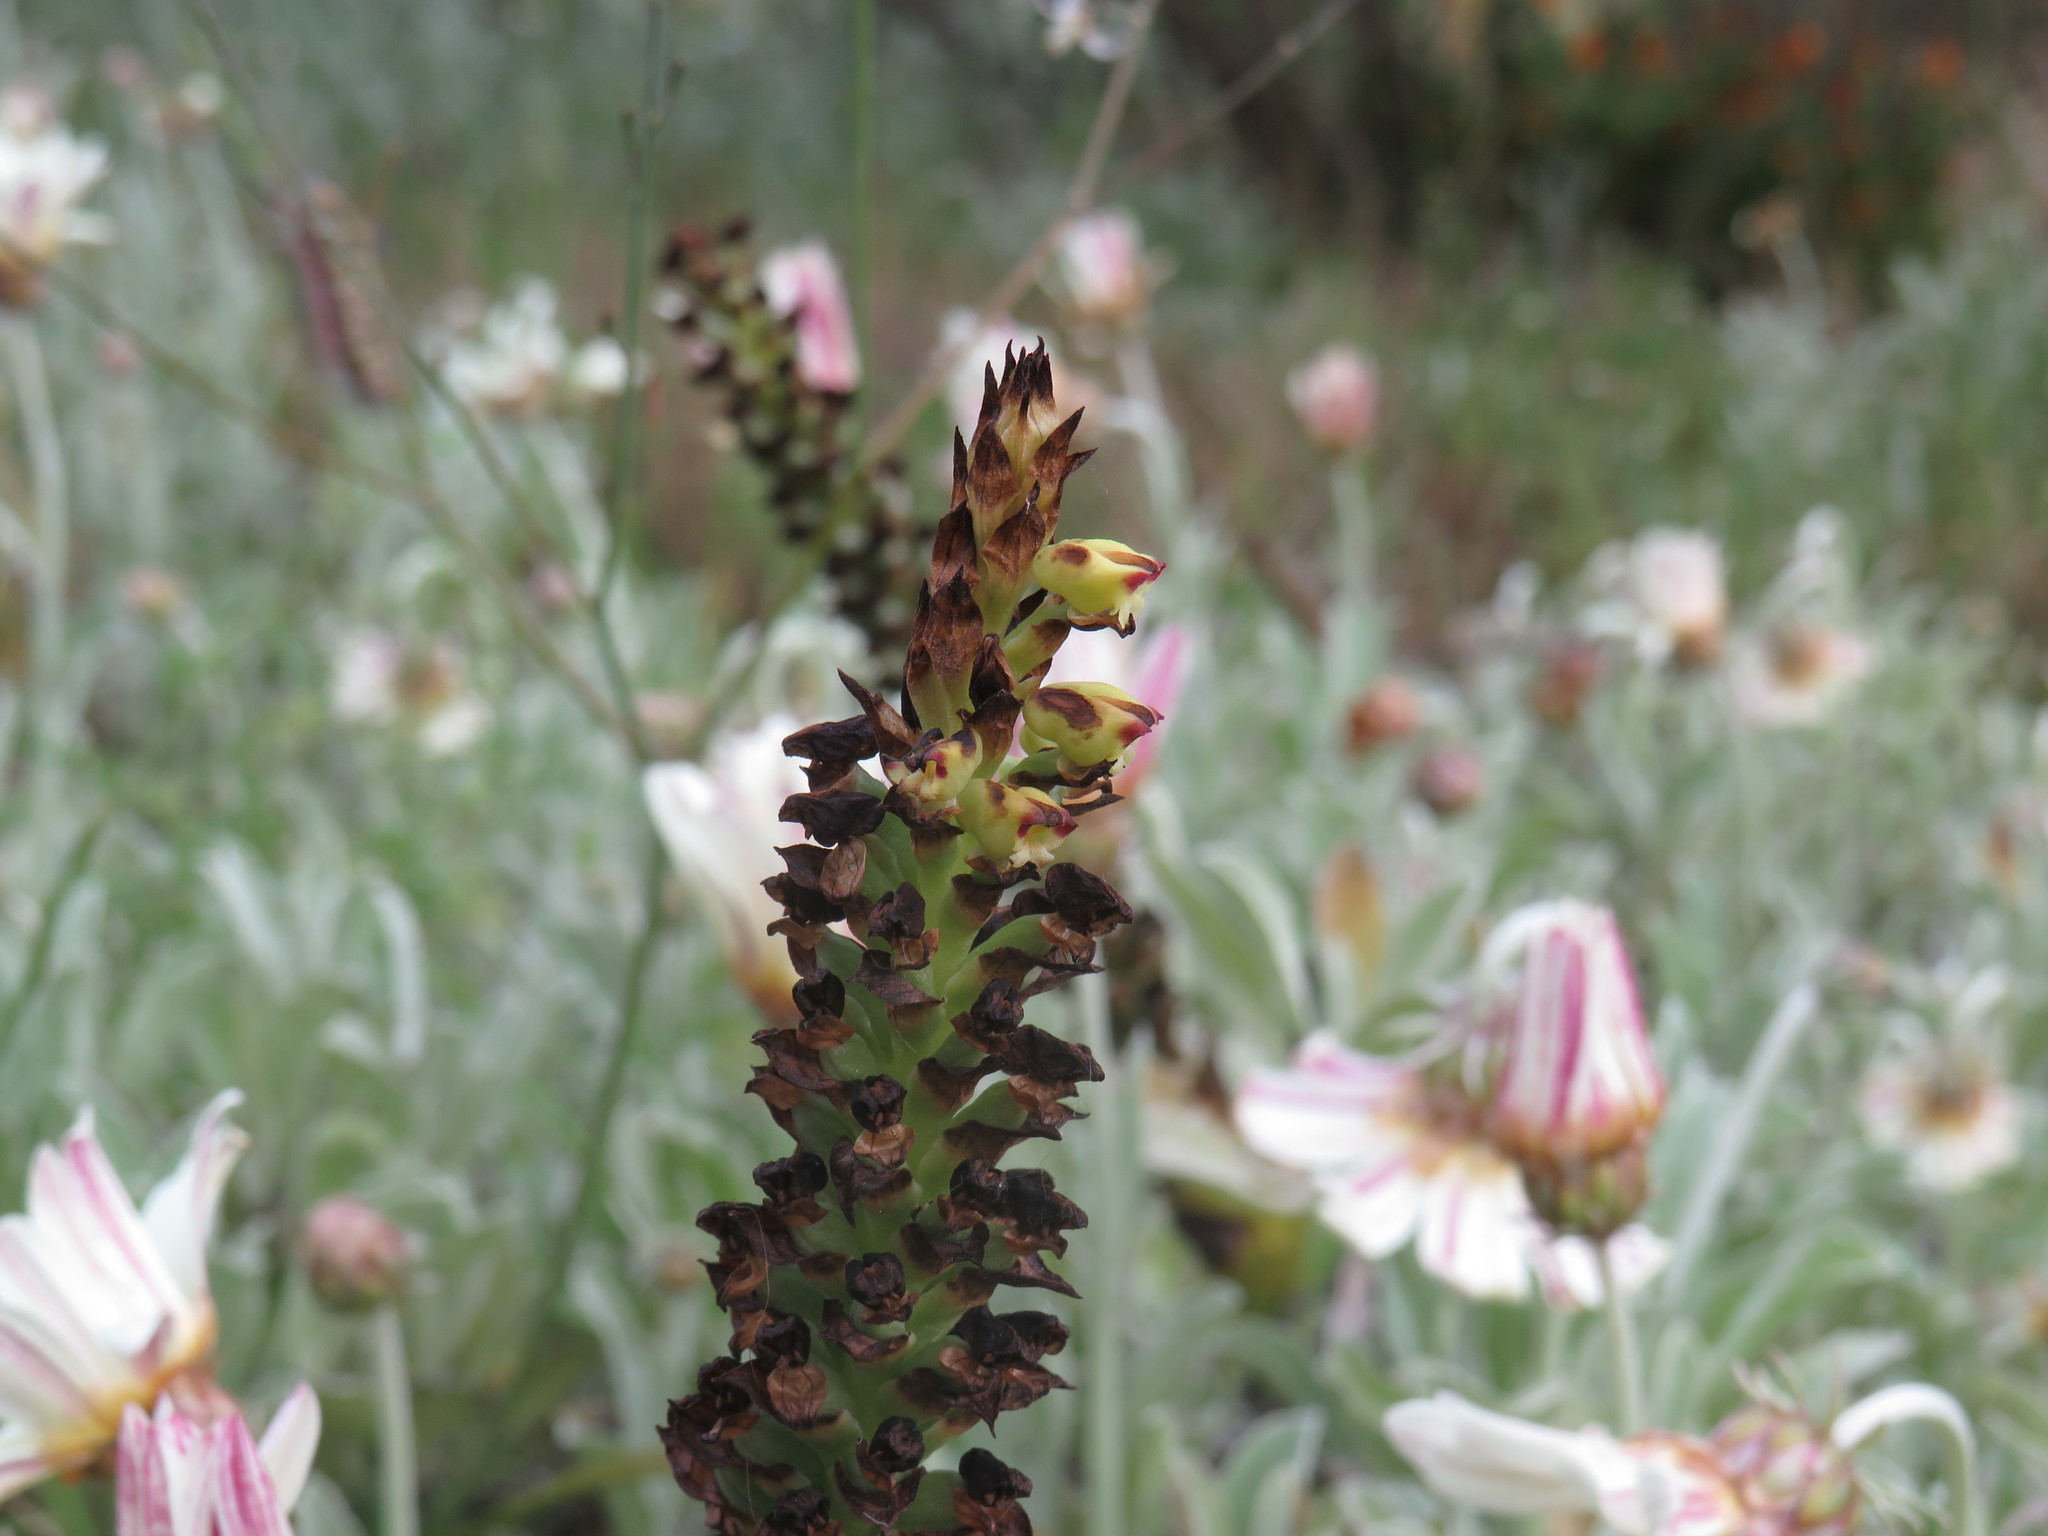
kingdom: Plantae
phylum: Tracheophyta
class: Liliopsida
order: Asparagales
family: Orchidaceae
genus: Corycium
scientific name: Corycium orobanchoides
